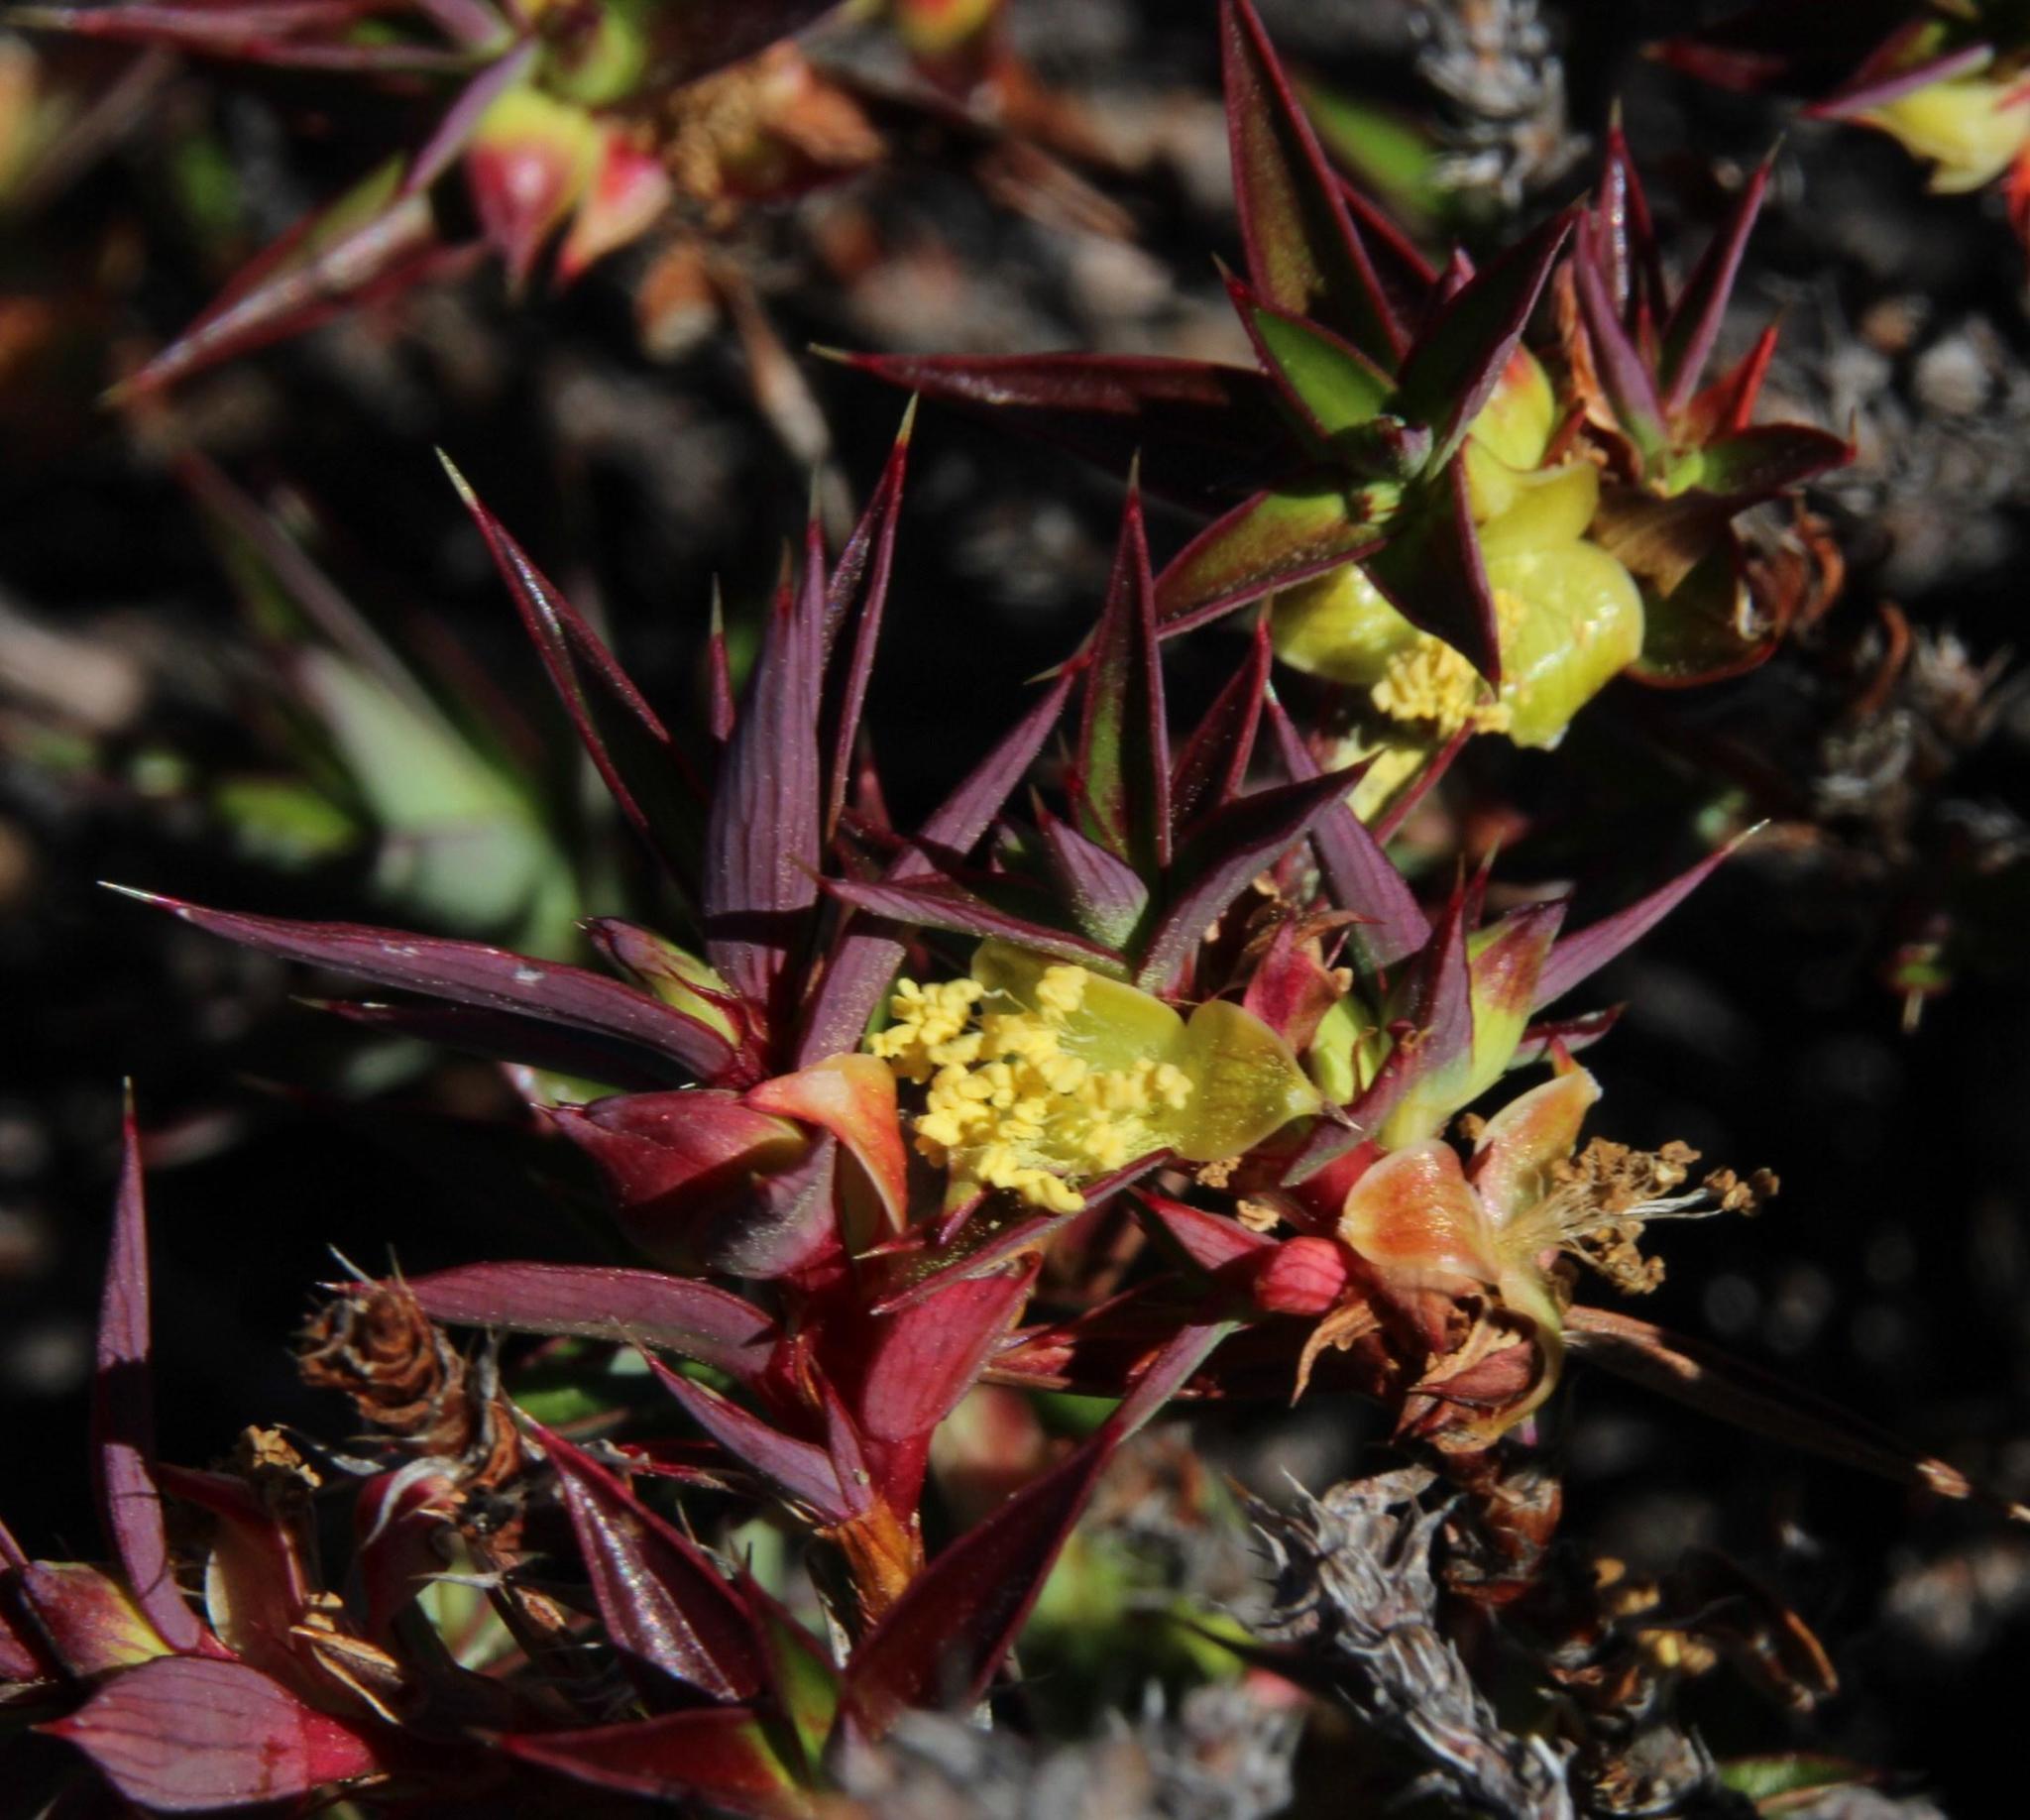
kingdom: Plantae
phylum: Tracheophyta
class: Magnoliopsida
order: Rosales
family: Rosaceae
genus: Cliffortia
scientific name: Cliffortia dregeana
